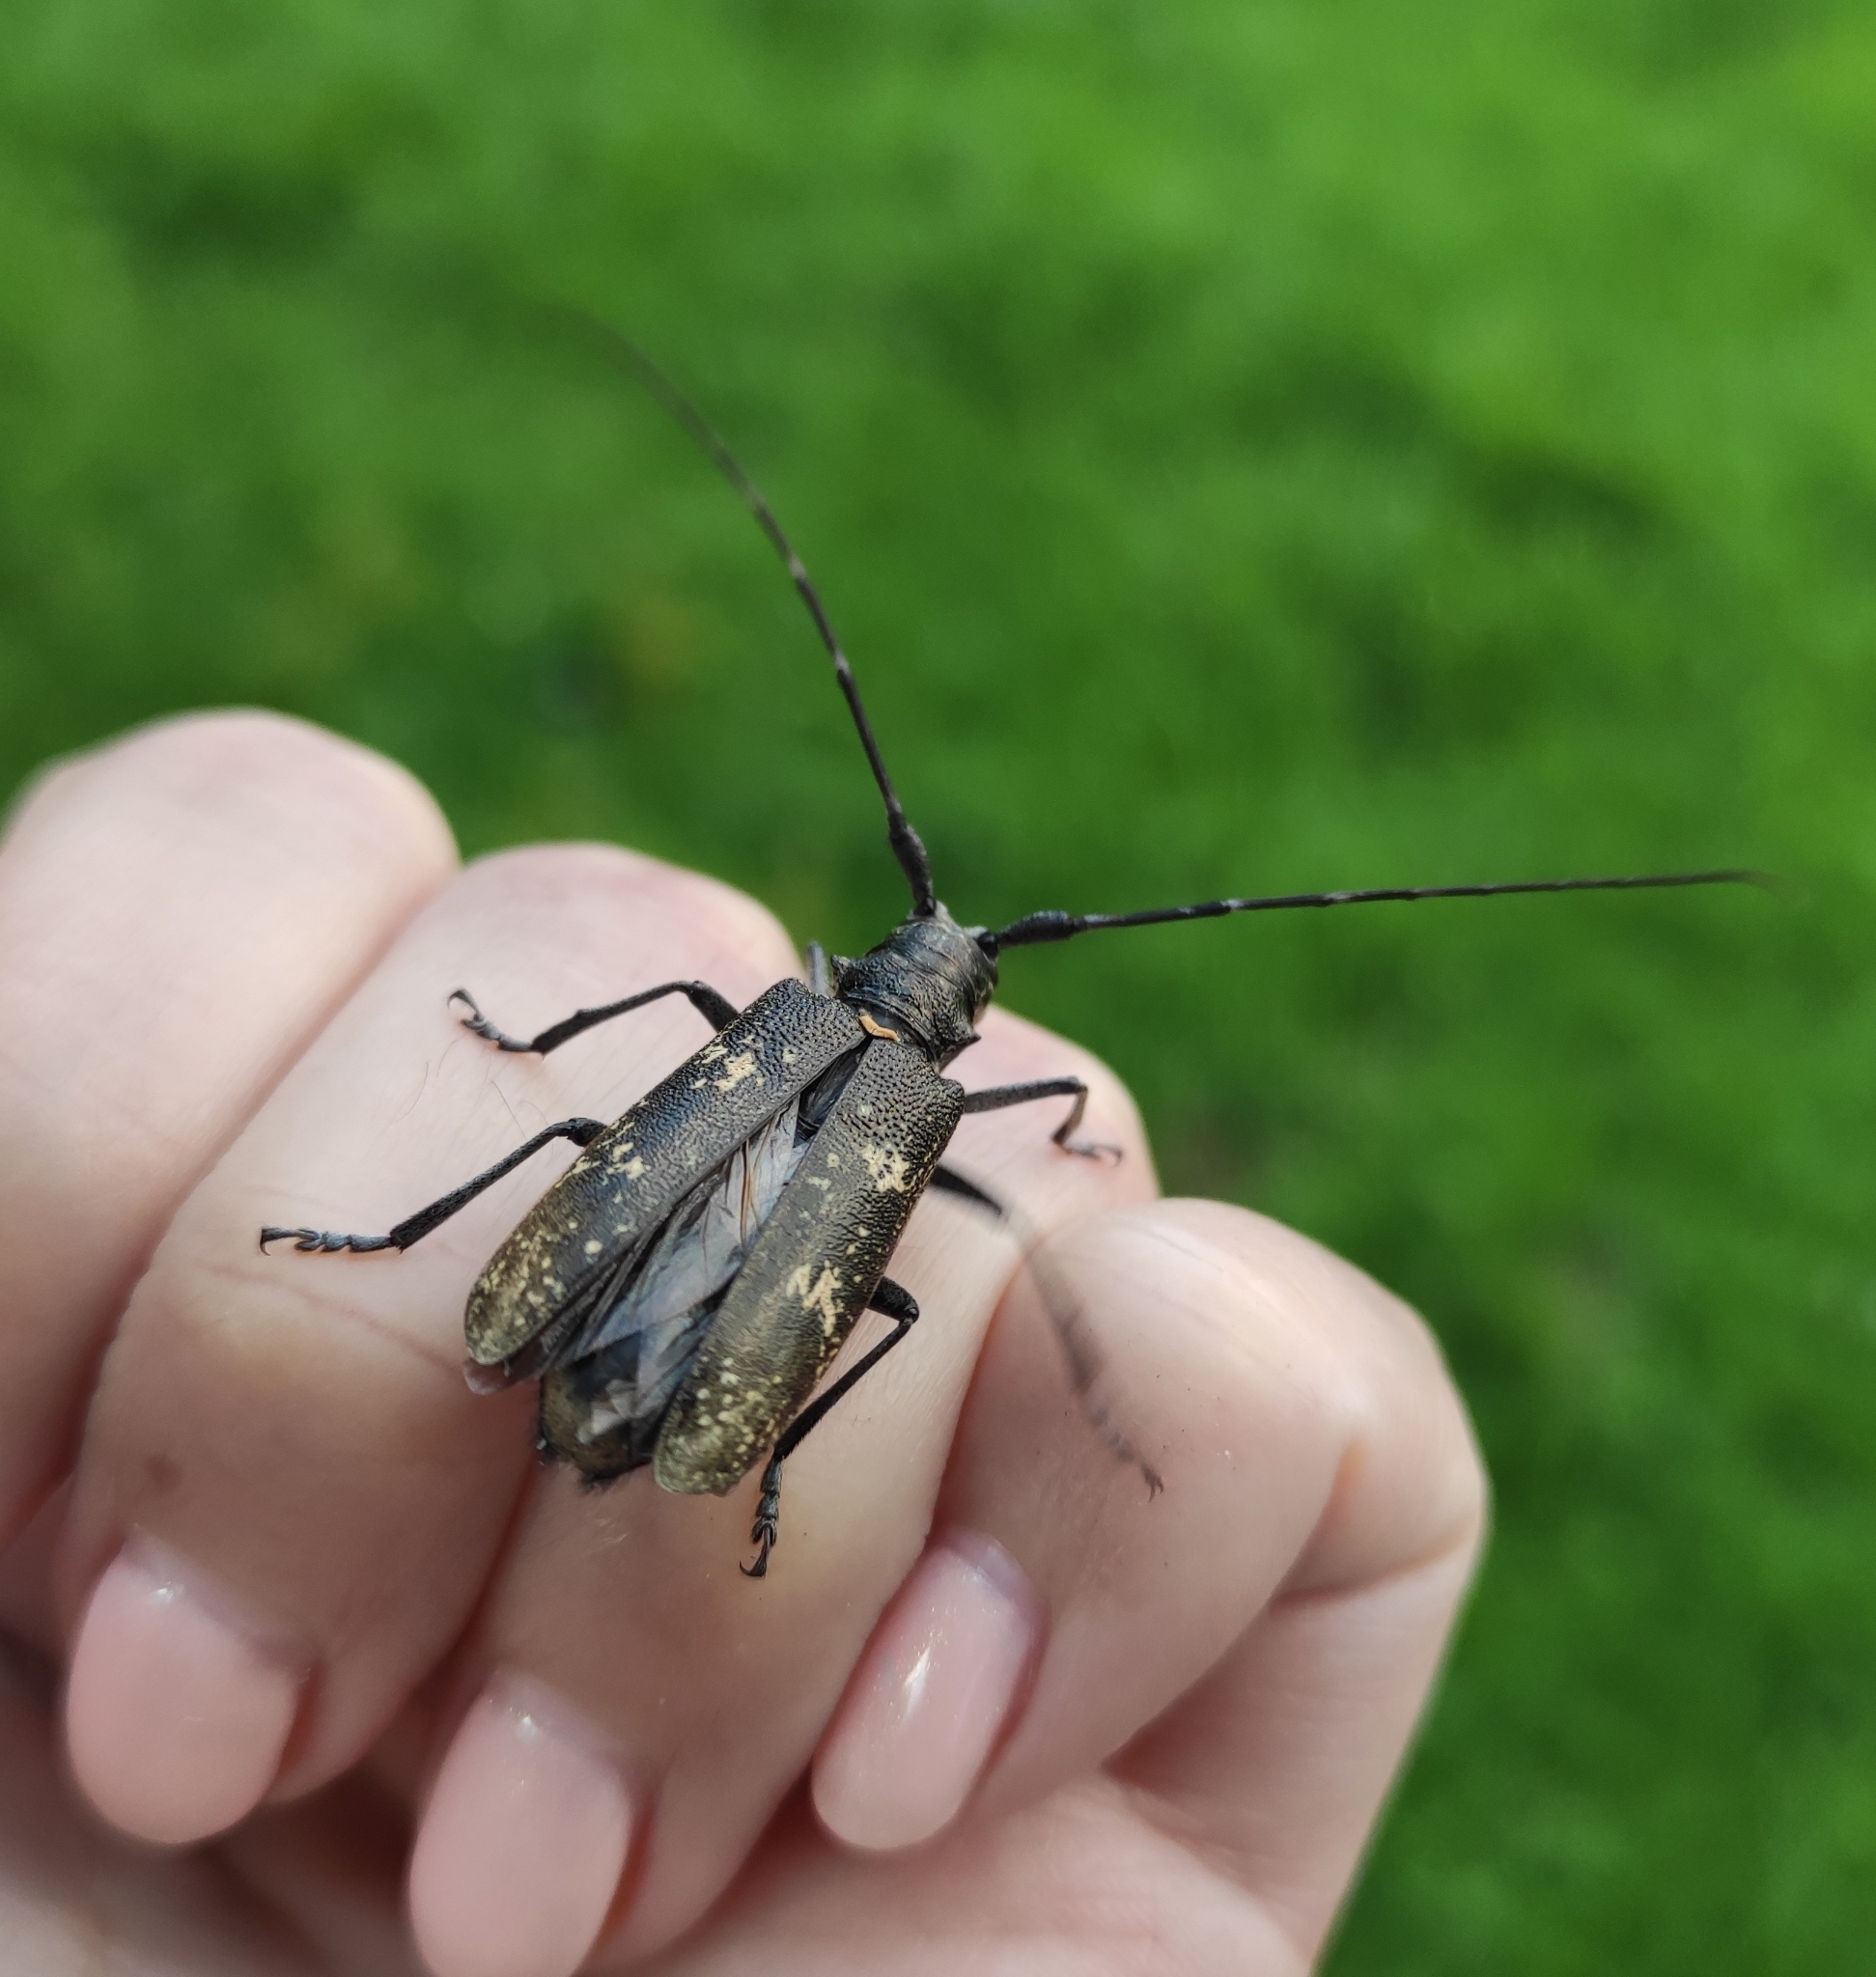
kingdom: Animalia
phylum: Arthropoda
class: Insecta
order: Coleoptera
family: Cerambycidae
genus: Monochamus
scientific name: Monochamus sartor
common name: Pine sawyer
